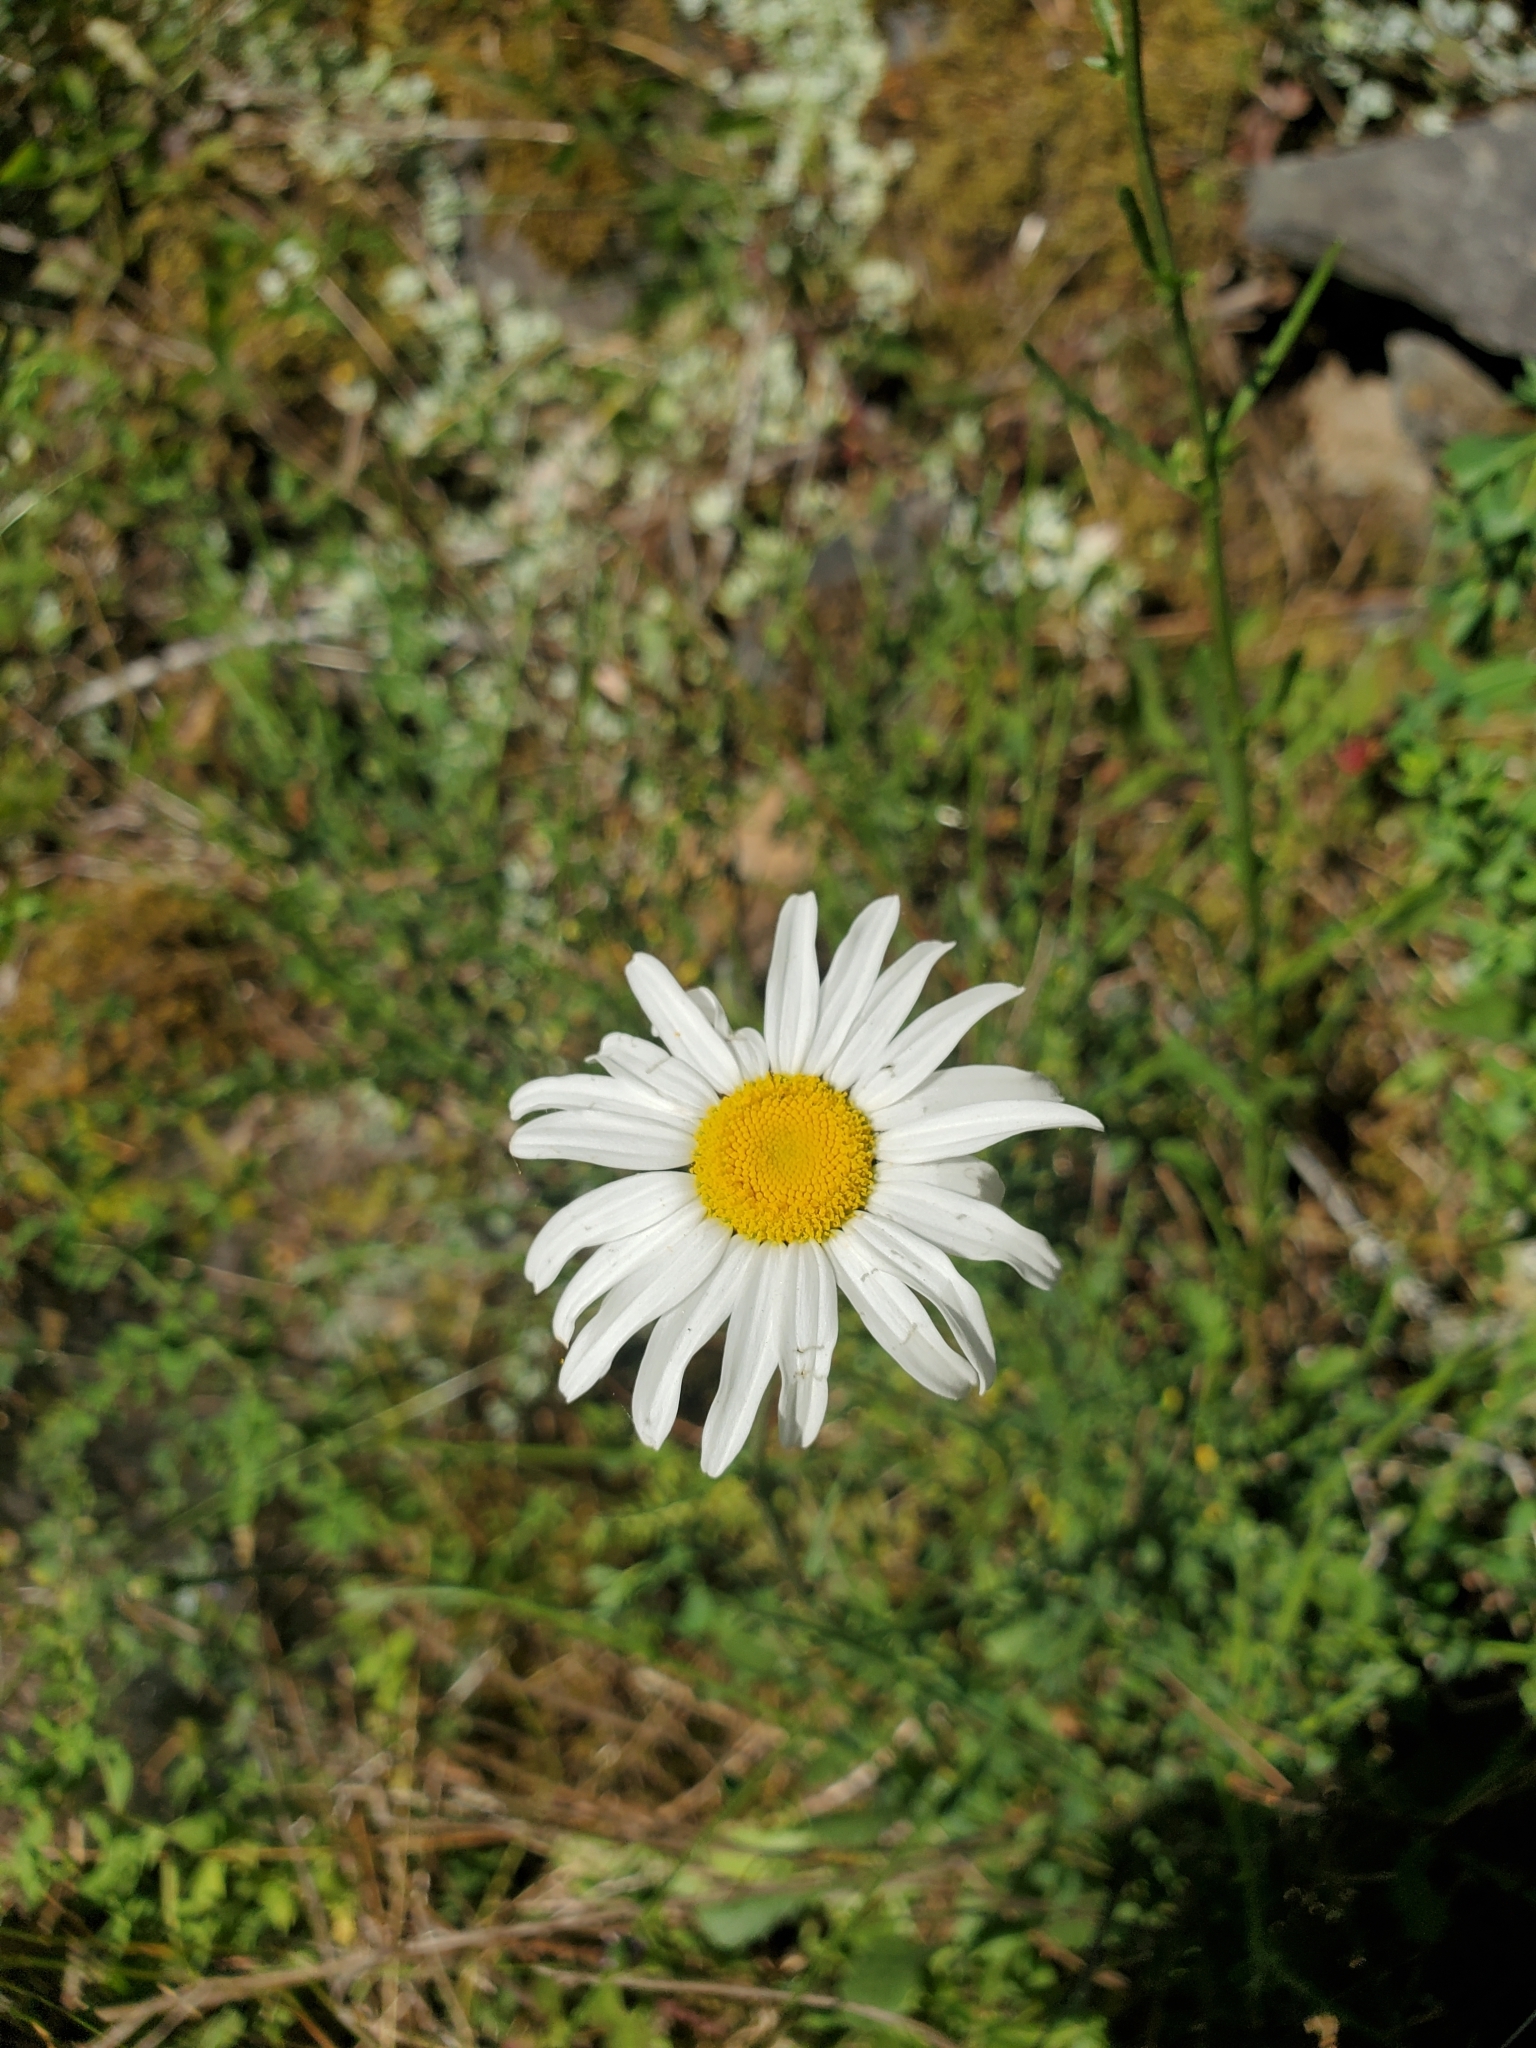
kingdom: Plantae
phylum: Tracheophyta
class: Magnoliopsida
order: Asterales
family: Asteraceae
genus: Leucanthemum
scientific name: Leucanthemum vulgare
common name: Oxeye daisy
